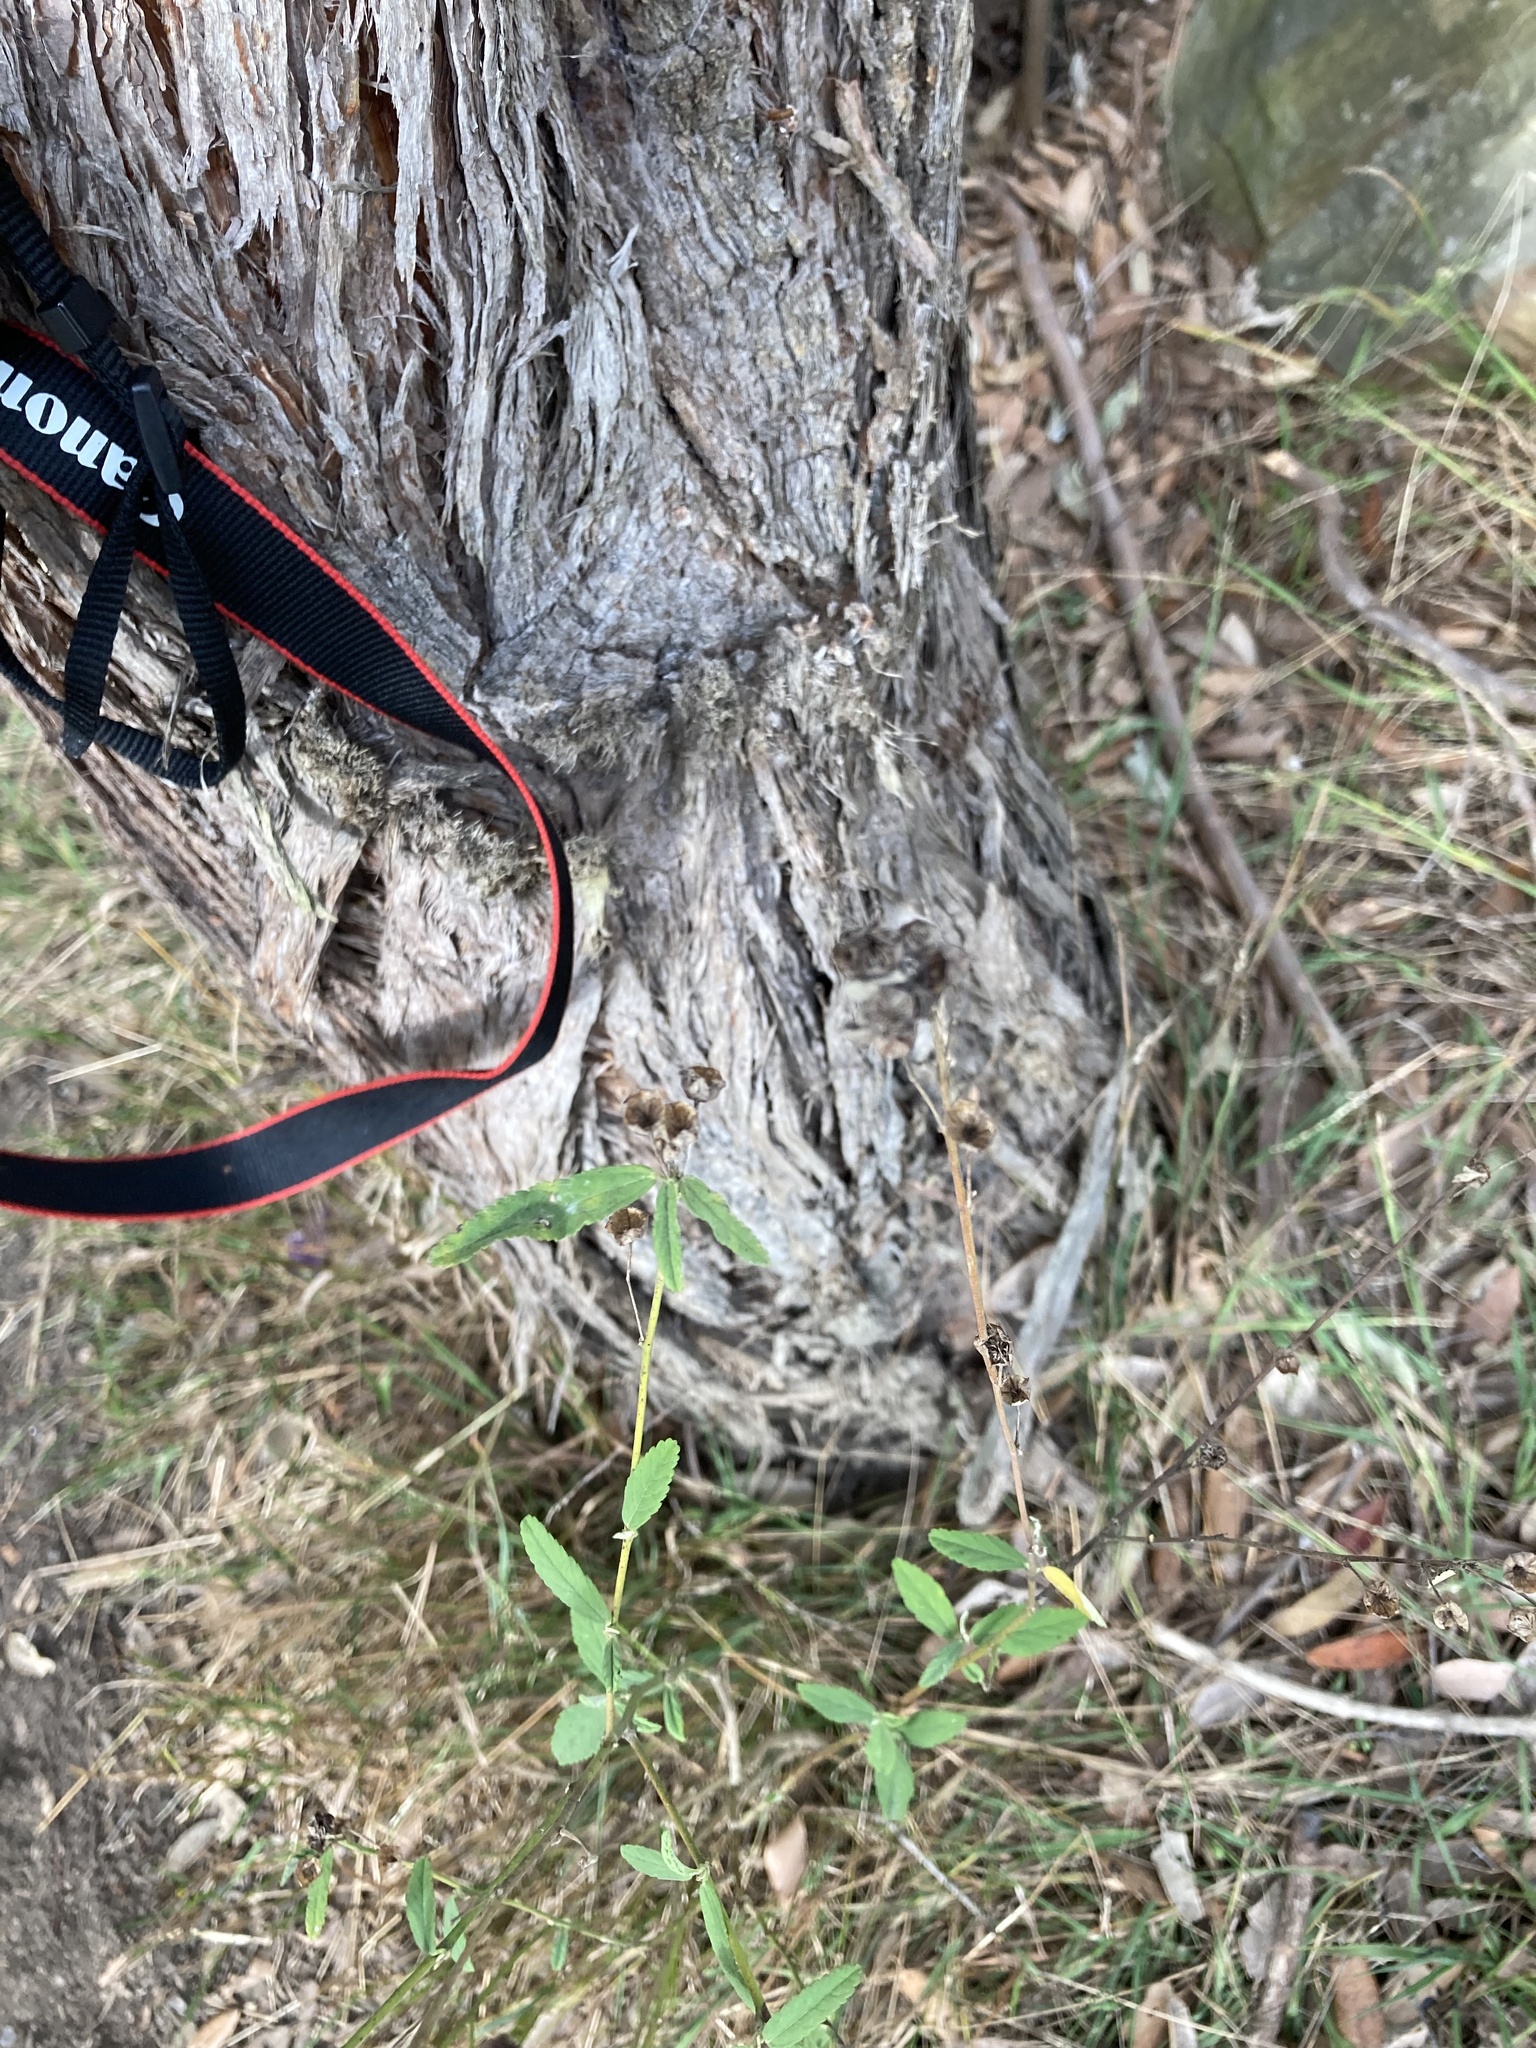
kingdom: Plantae
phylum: Tracheophyta
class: Magnoliopsida
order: Malvales
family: Malvaceae
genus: Sida
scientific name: Sida rhombifolia
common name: Queensland-hemp
